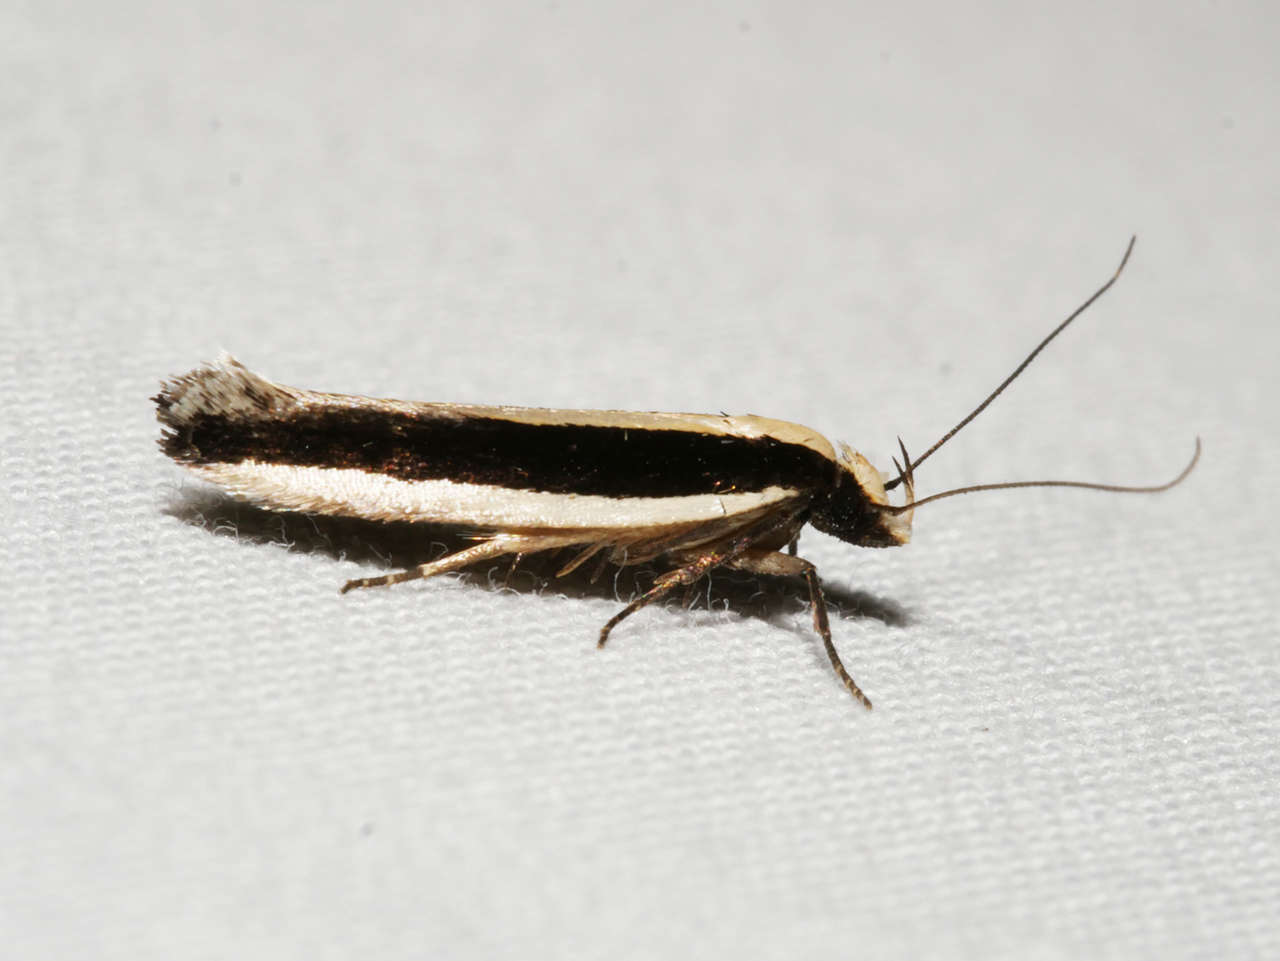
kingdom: Animalia
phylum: Arthropoda
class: Insecta
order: Lepidoptera
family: Gelechiidae
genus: Macrenches
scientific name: Macrenches clerica
